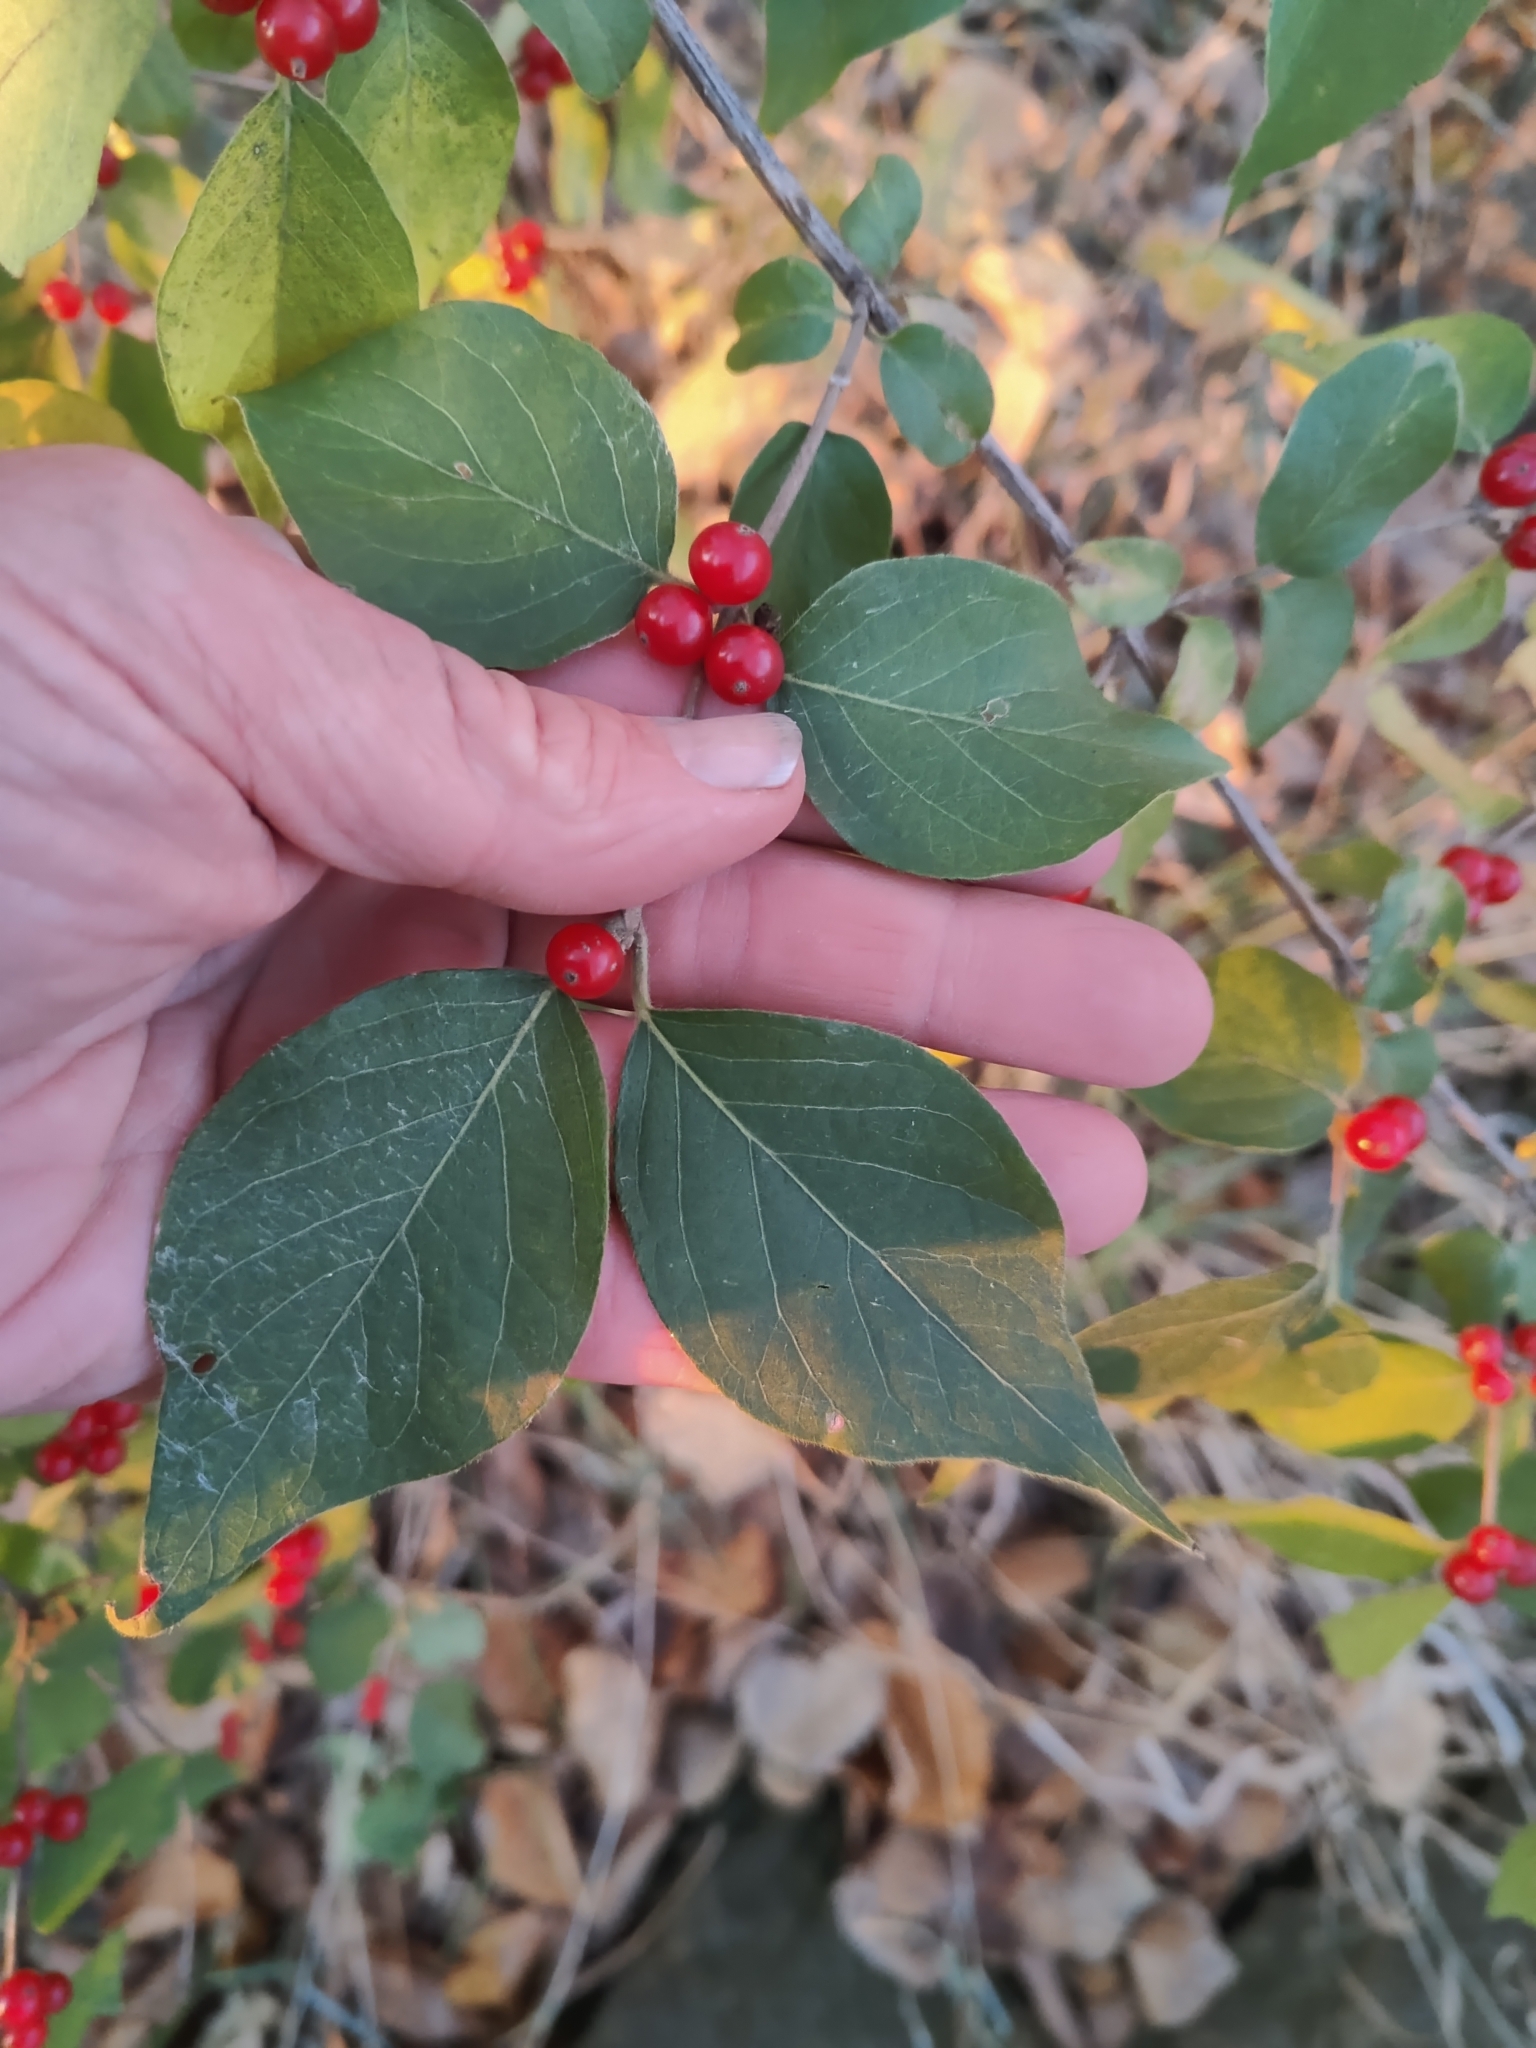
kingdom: Plantae
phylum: Tracheophyta
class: Magnoliopsida
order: Dipsacales
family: Caprifoliaceae
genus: Lonicera
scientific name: Lonicera maackii
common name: Amur honeysuckle
